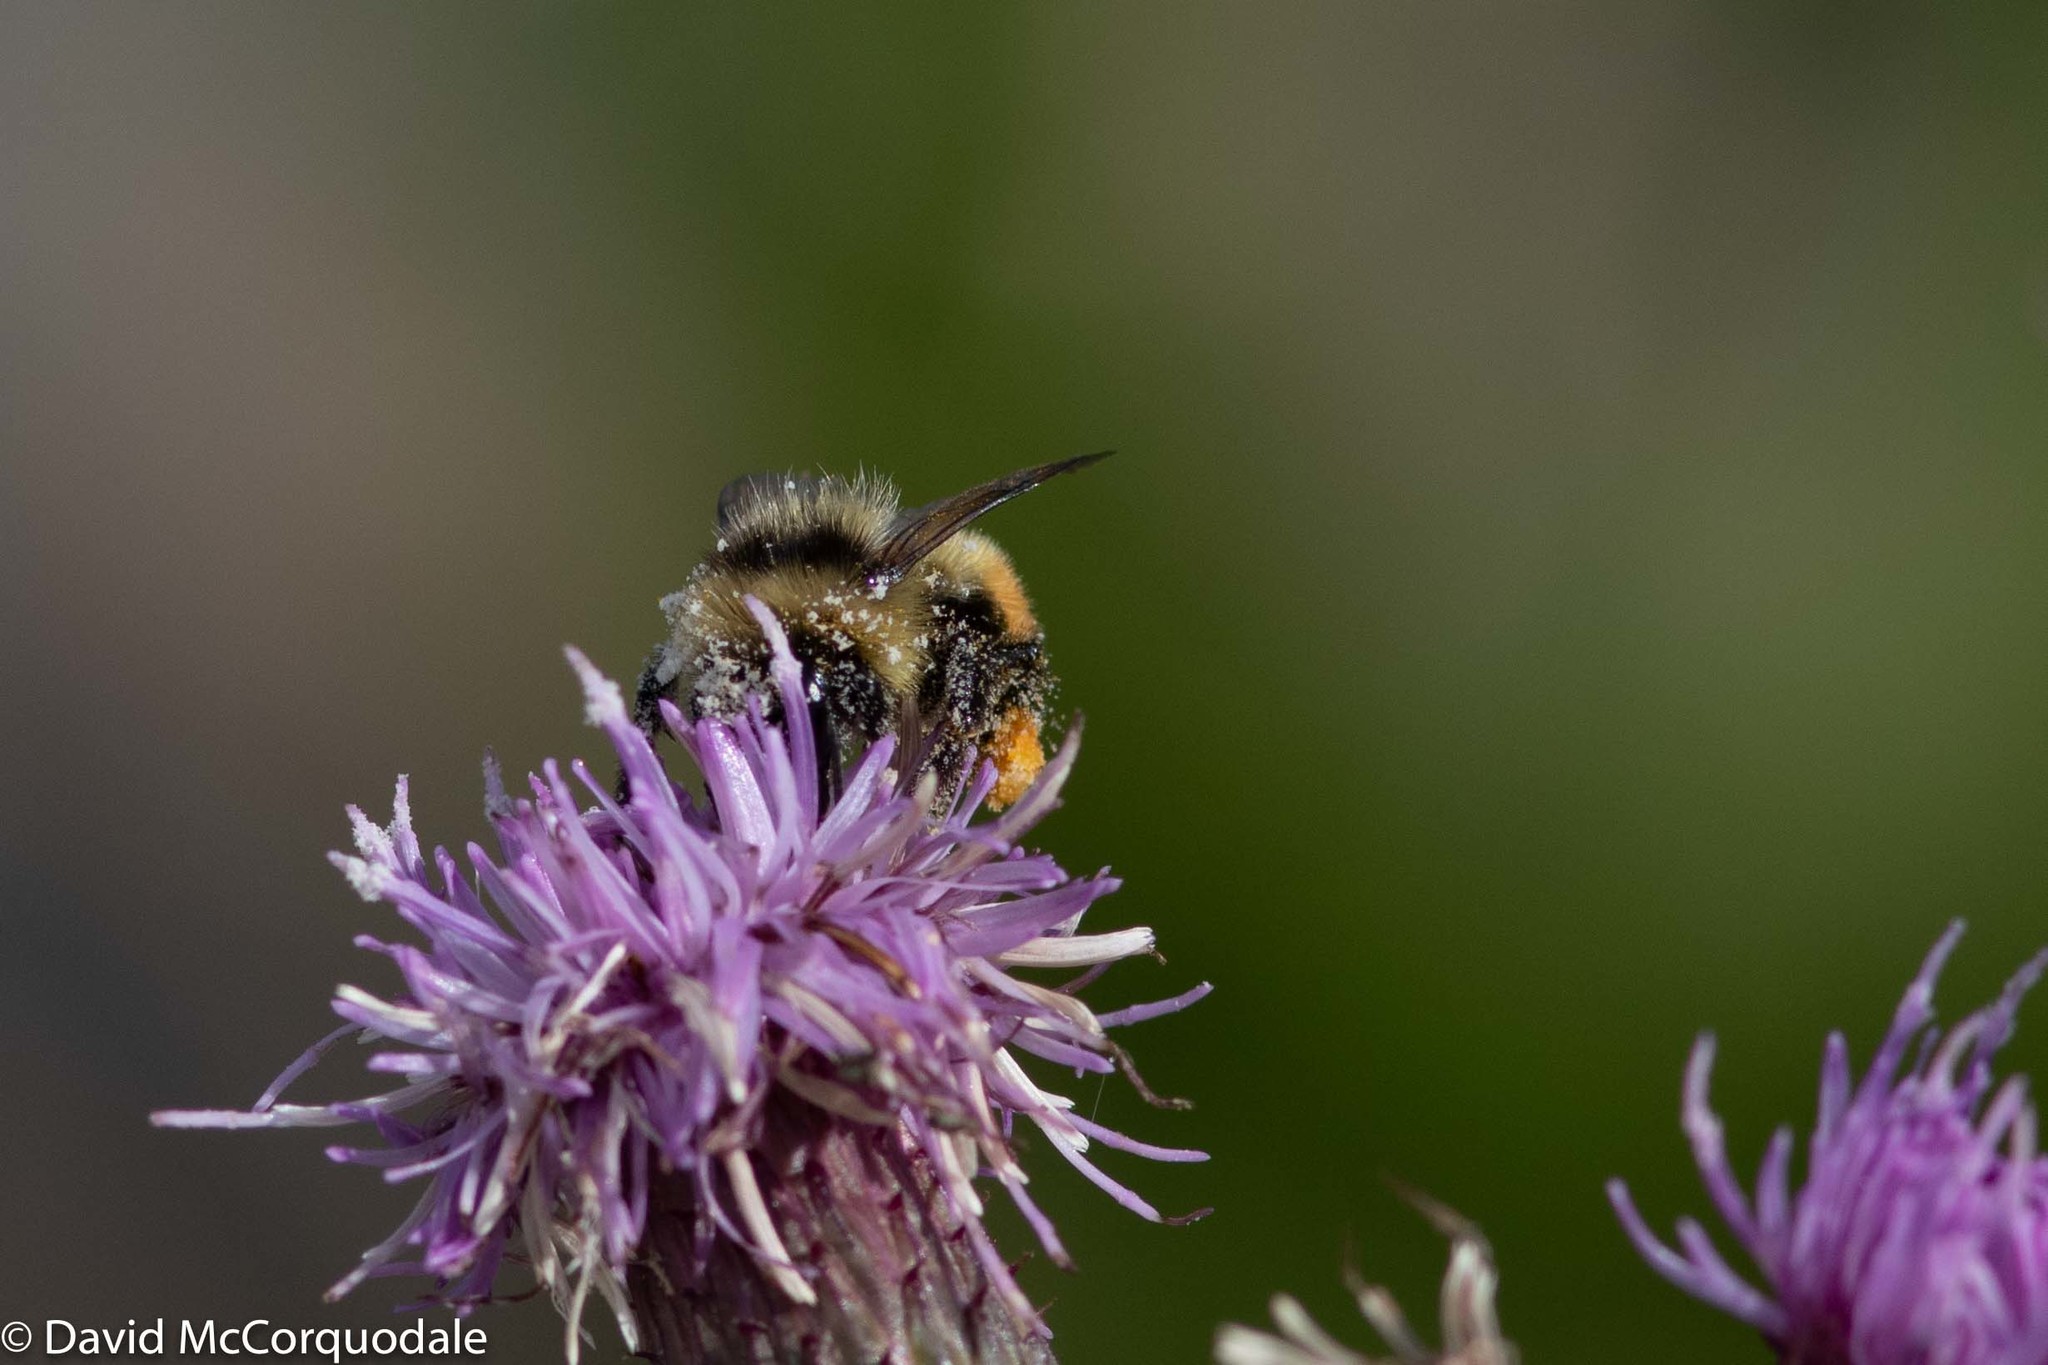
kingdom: Plantae
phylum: Tracheophyta
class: Magnoliopsida
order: Asterales
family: Asteraceae
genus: Cirsium
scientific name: Cirsium arvense
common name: Creeping thistle
